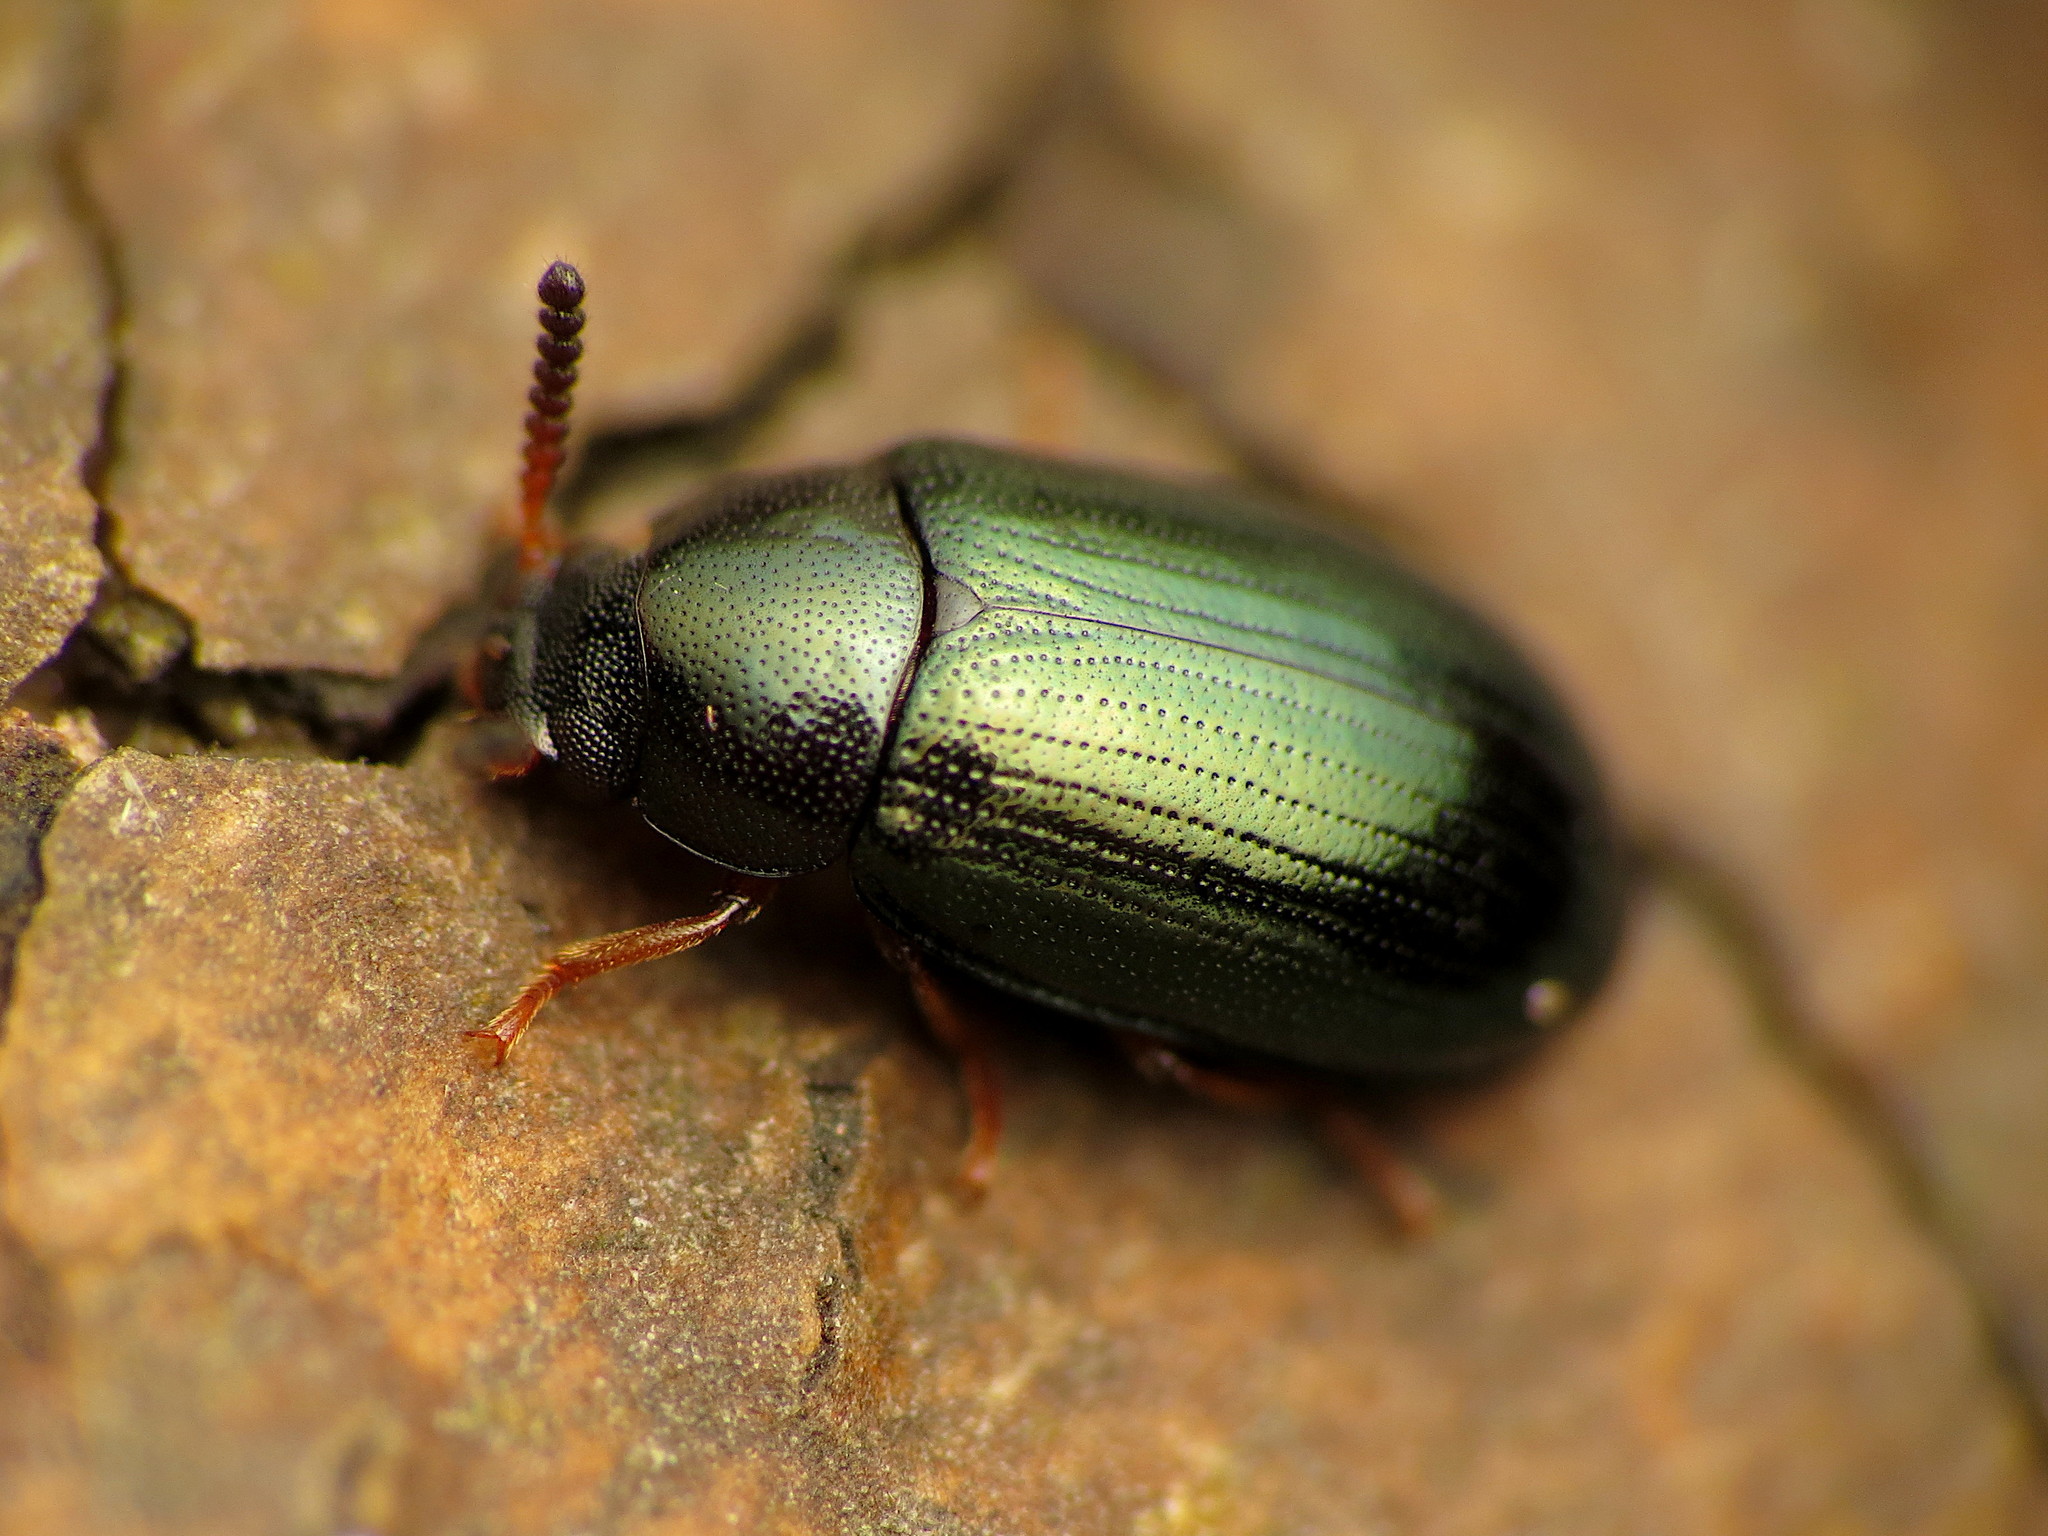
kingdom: Animalia
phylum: Arthropoda
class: Insecta
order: Coleoptera
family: Tenebrionidae
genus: Neomida
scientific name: Neomida bicornis
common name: Two-horned darkling beetle
